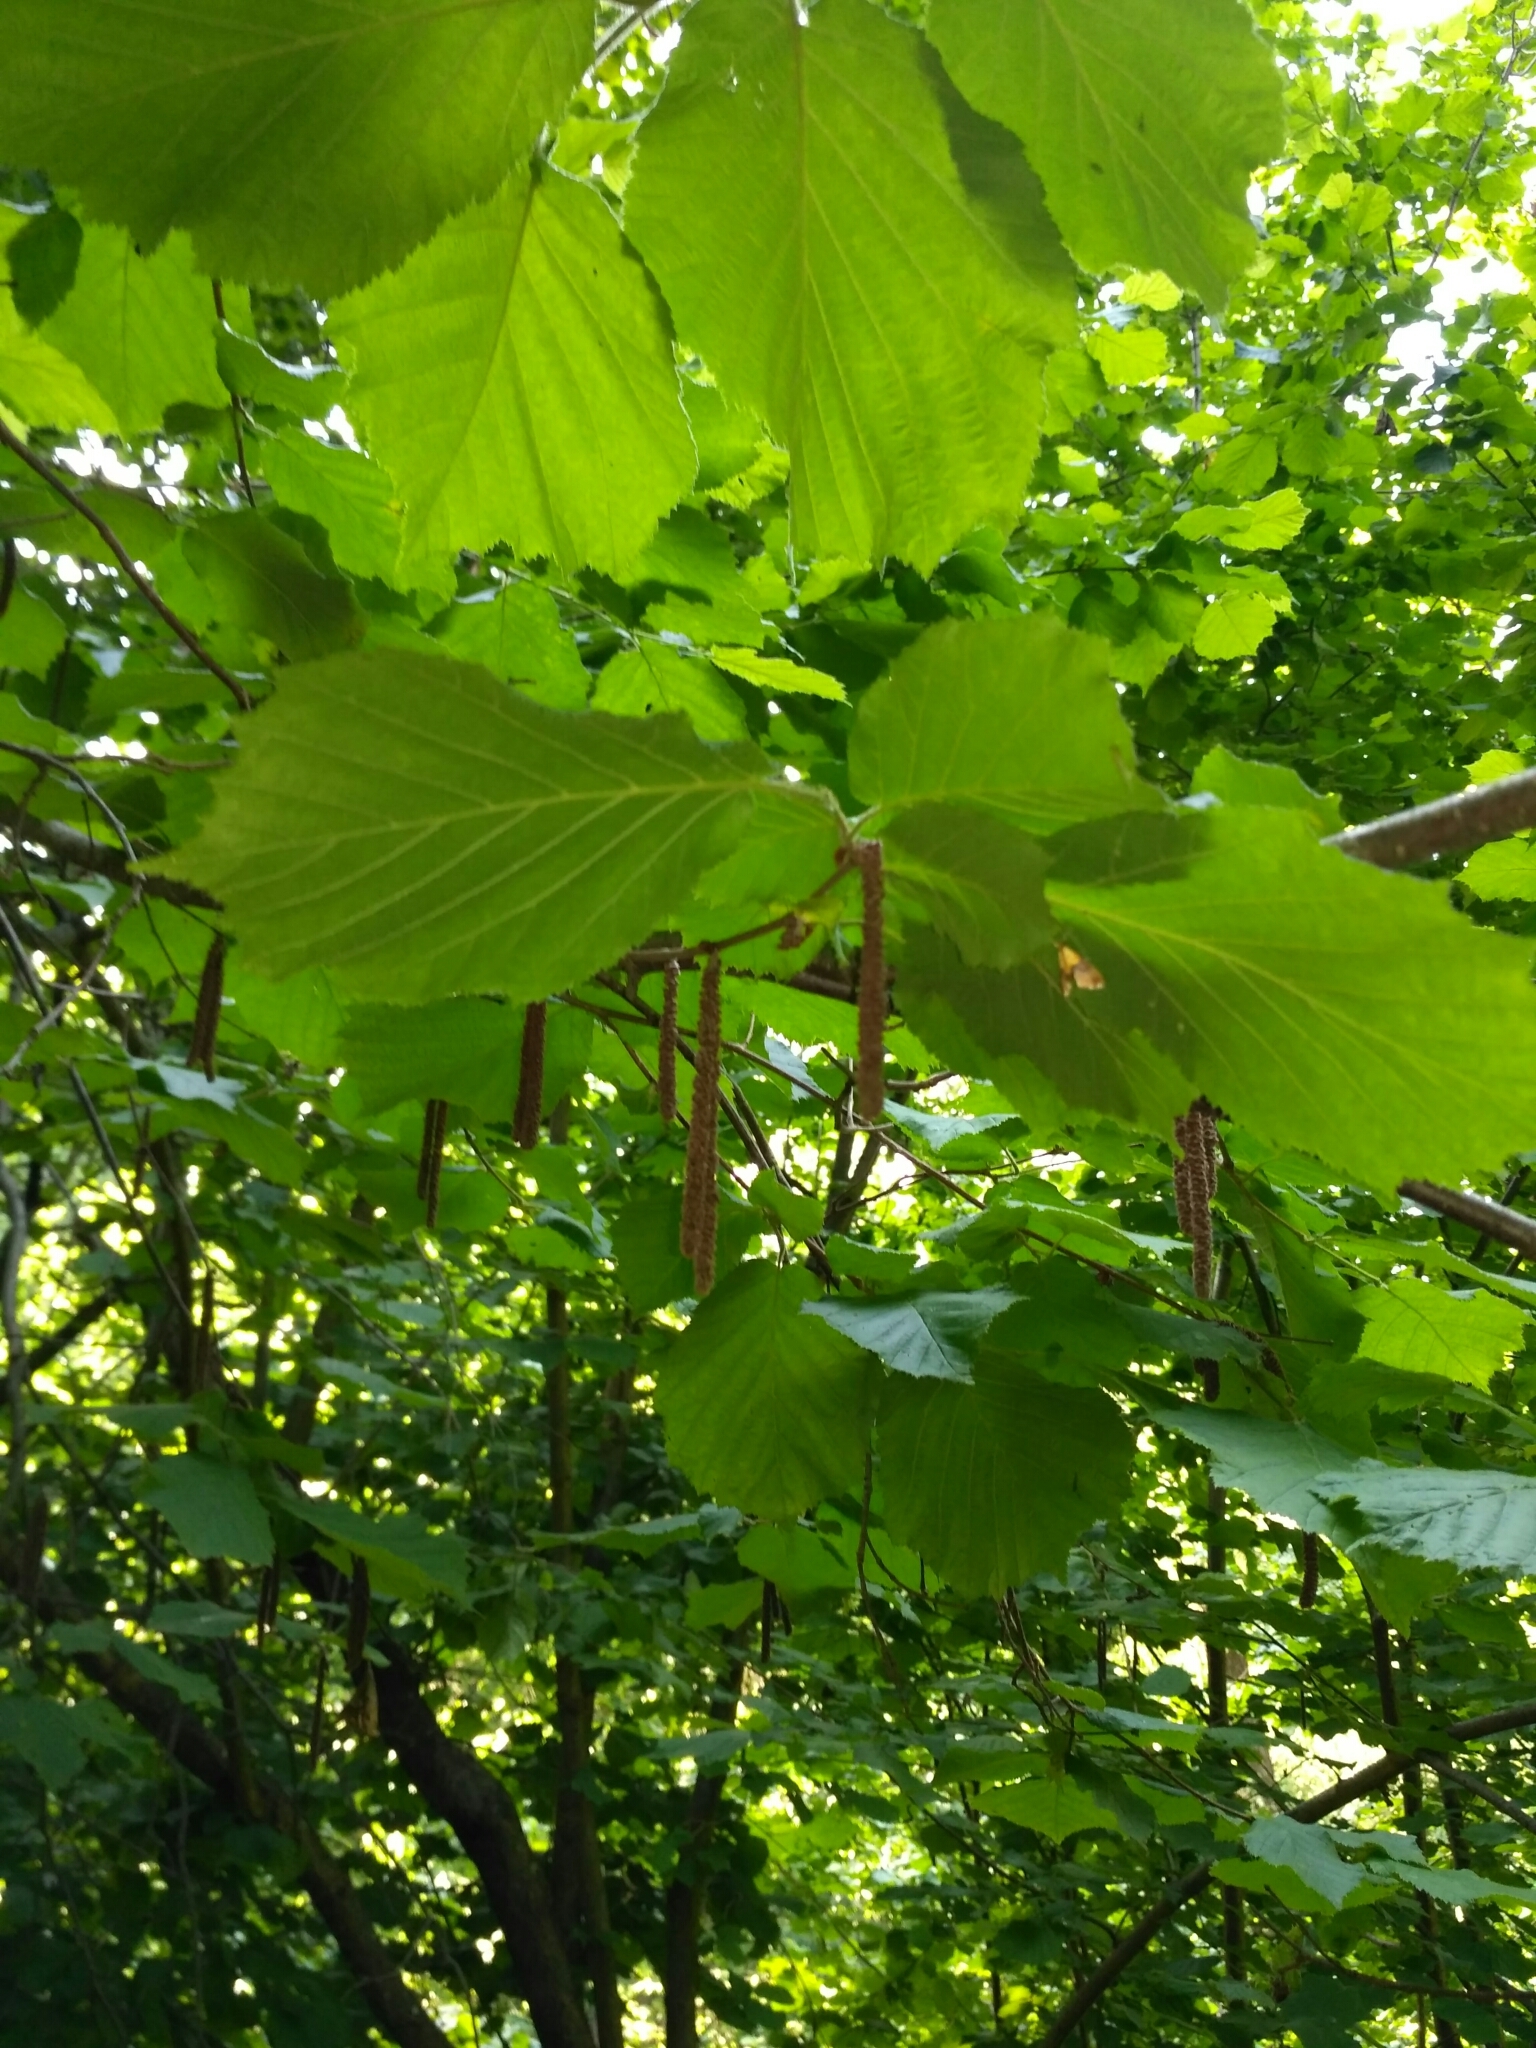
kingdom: Plantae
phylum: Tracheophyta
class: Magnoliopsida
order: Fagales
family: Betulaceae
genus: Corylus
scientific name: Corylus avellana
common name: European hazel
